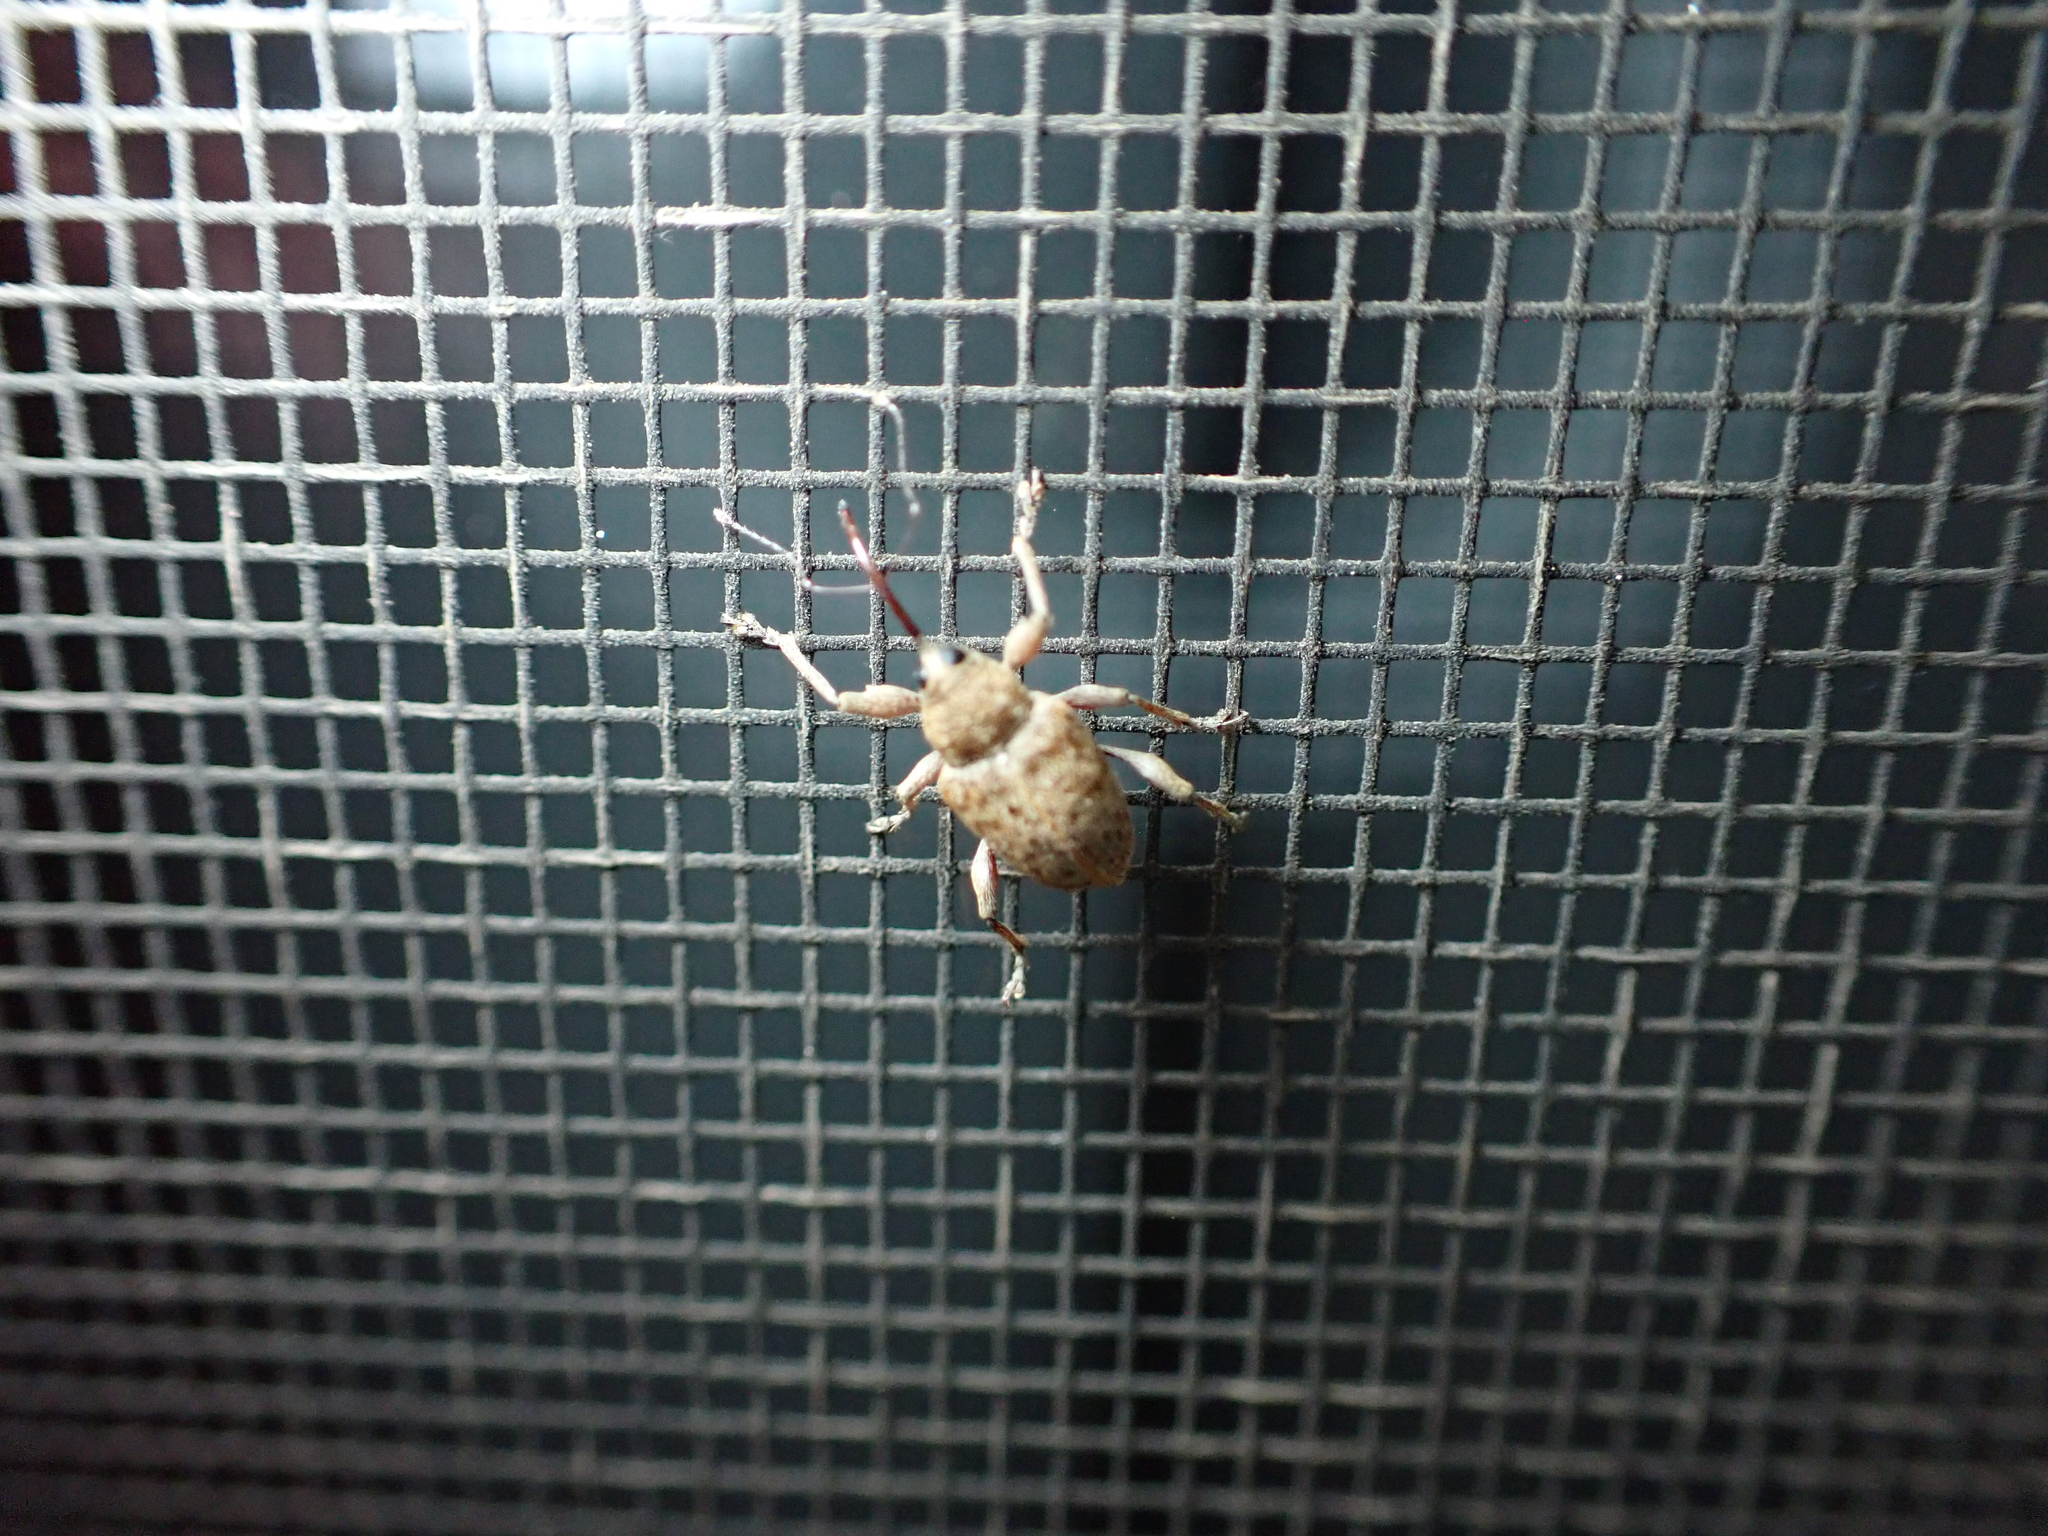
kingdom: Animalia
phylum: Arthropoda
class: Insecta
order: Coleoptera
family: Curculionidae
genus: Curculio
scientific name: Curculio occidentis
